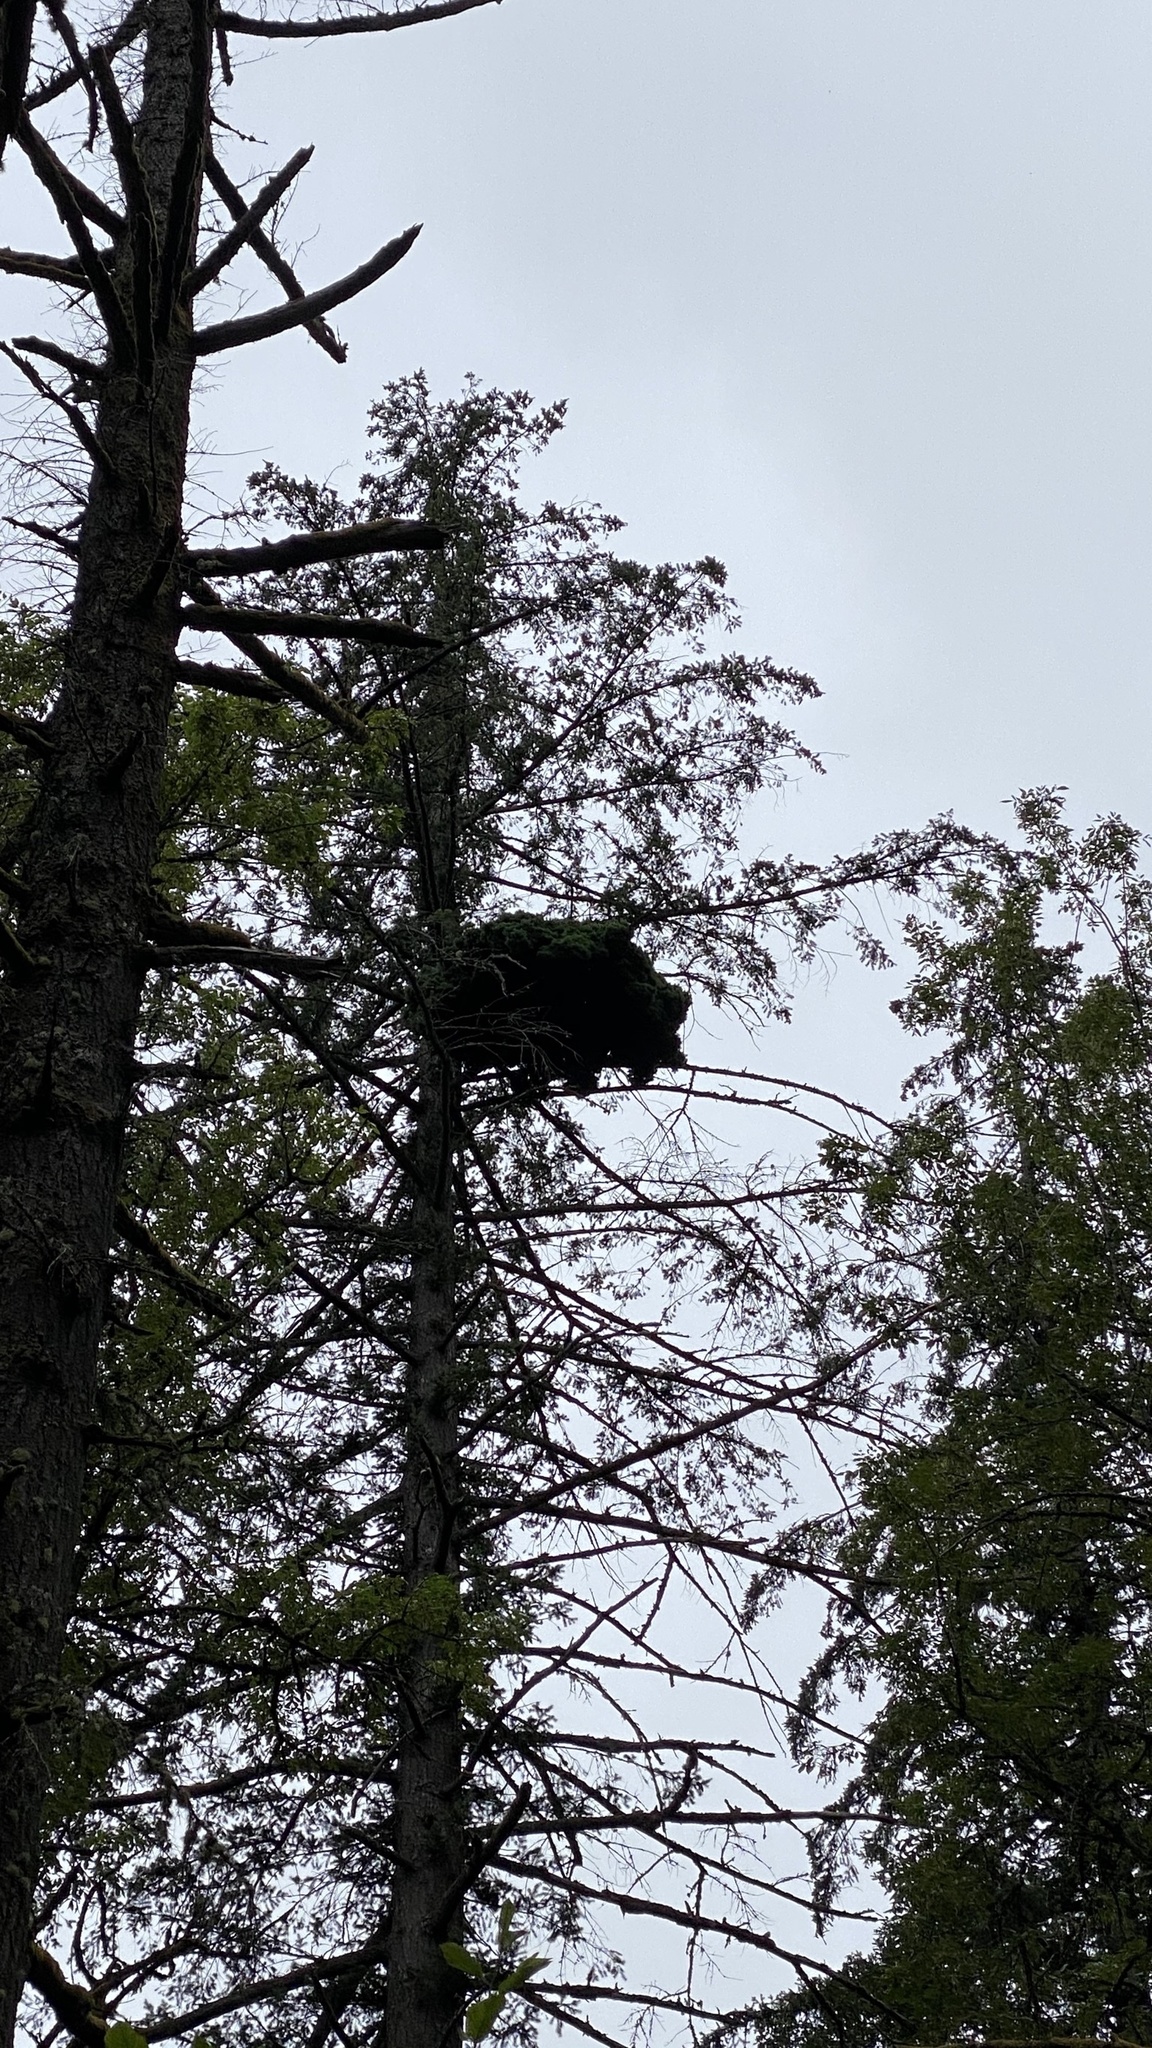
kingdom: Animalia
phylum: Chordata
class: Aves
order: Accipitriformes
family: Accipitridae
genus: Haliaeetus
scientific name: Haliaeetus leucocephalus
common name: Bald eagle
